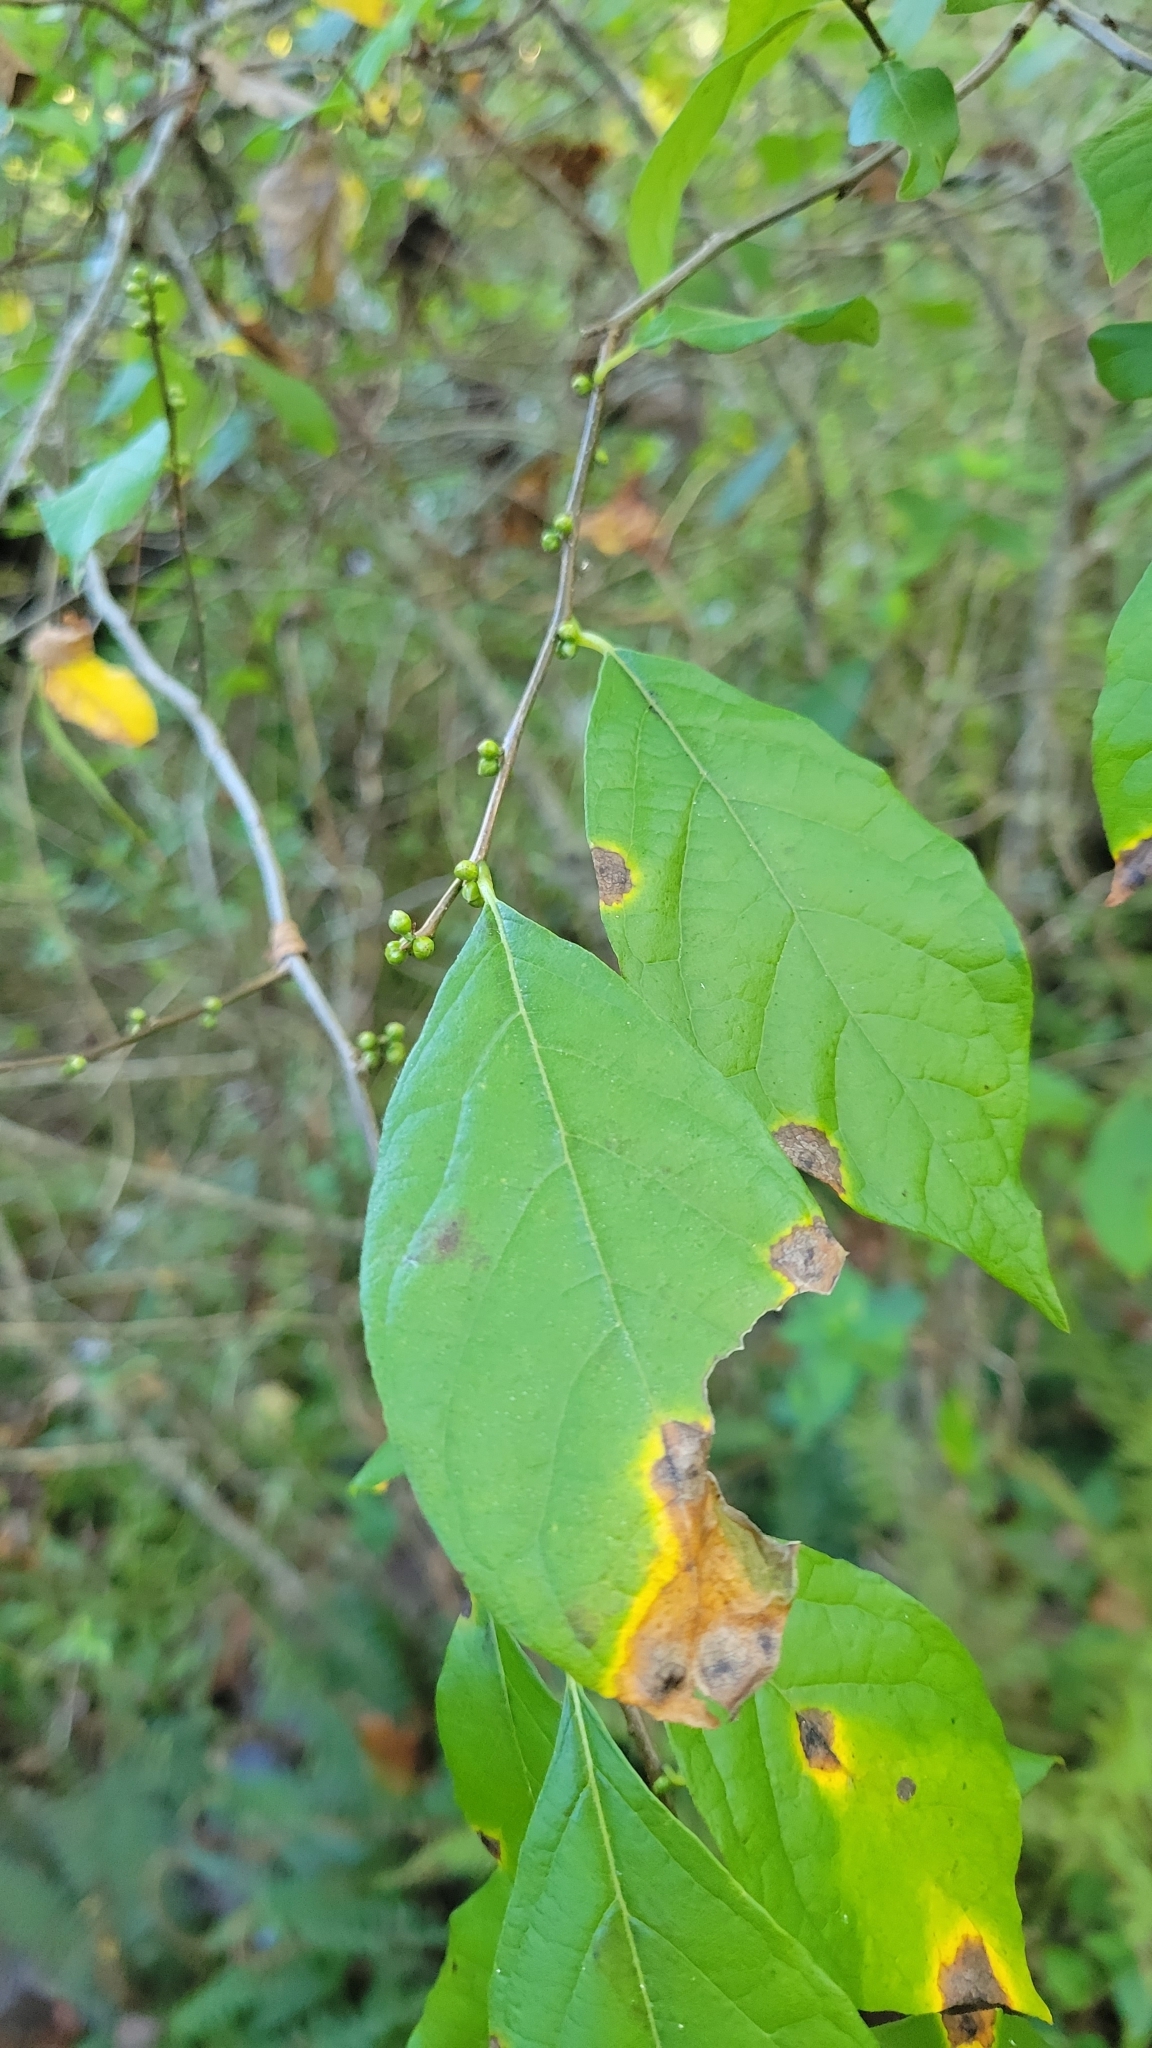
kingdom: Plantae
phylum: Tracheophyta
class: Magnoliopsida
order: Laurales
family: Lauraceae
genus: Lindera
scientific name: Lindera benzoin
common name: Spicebush
